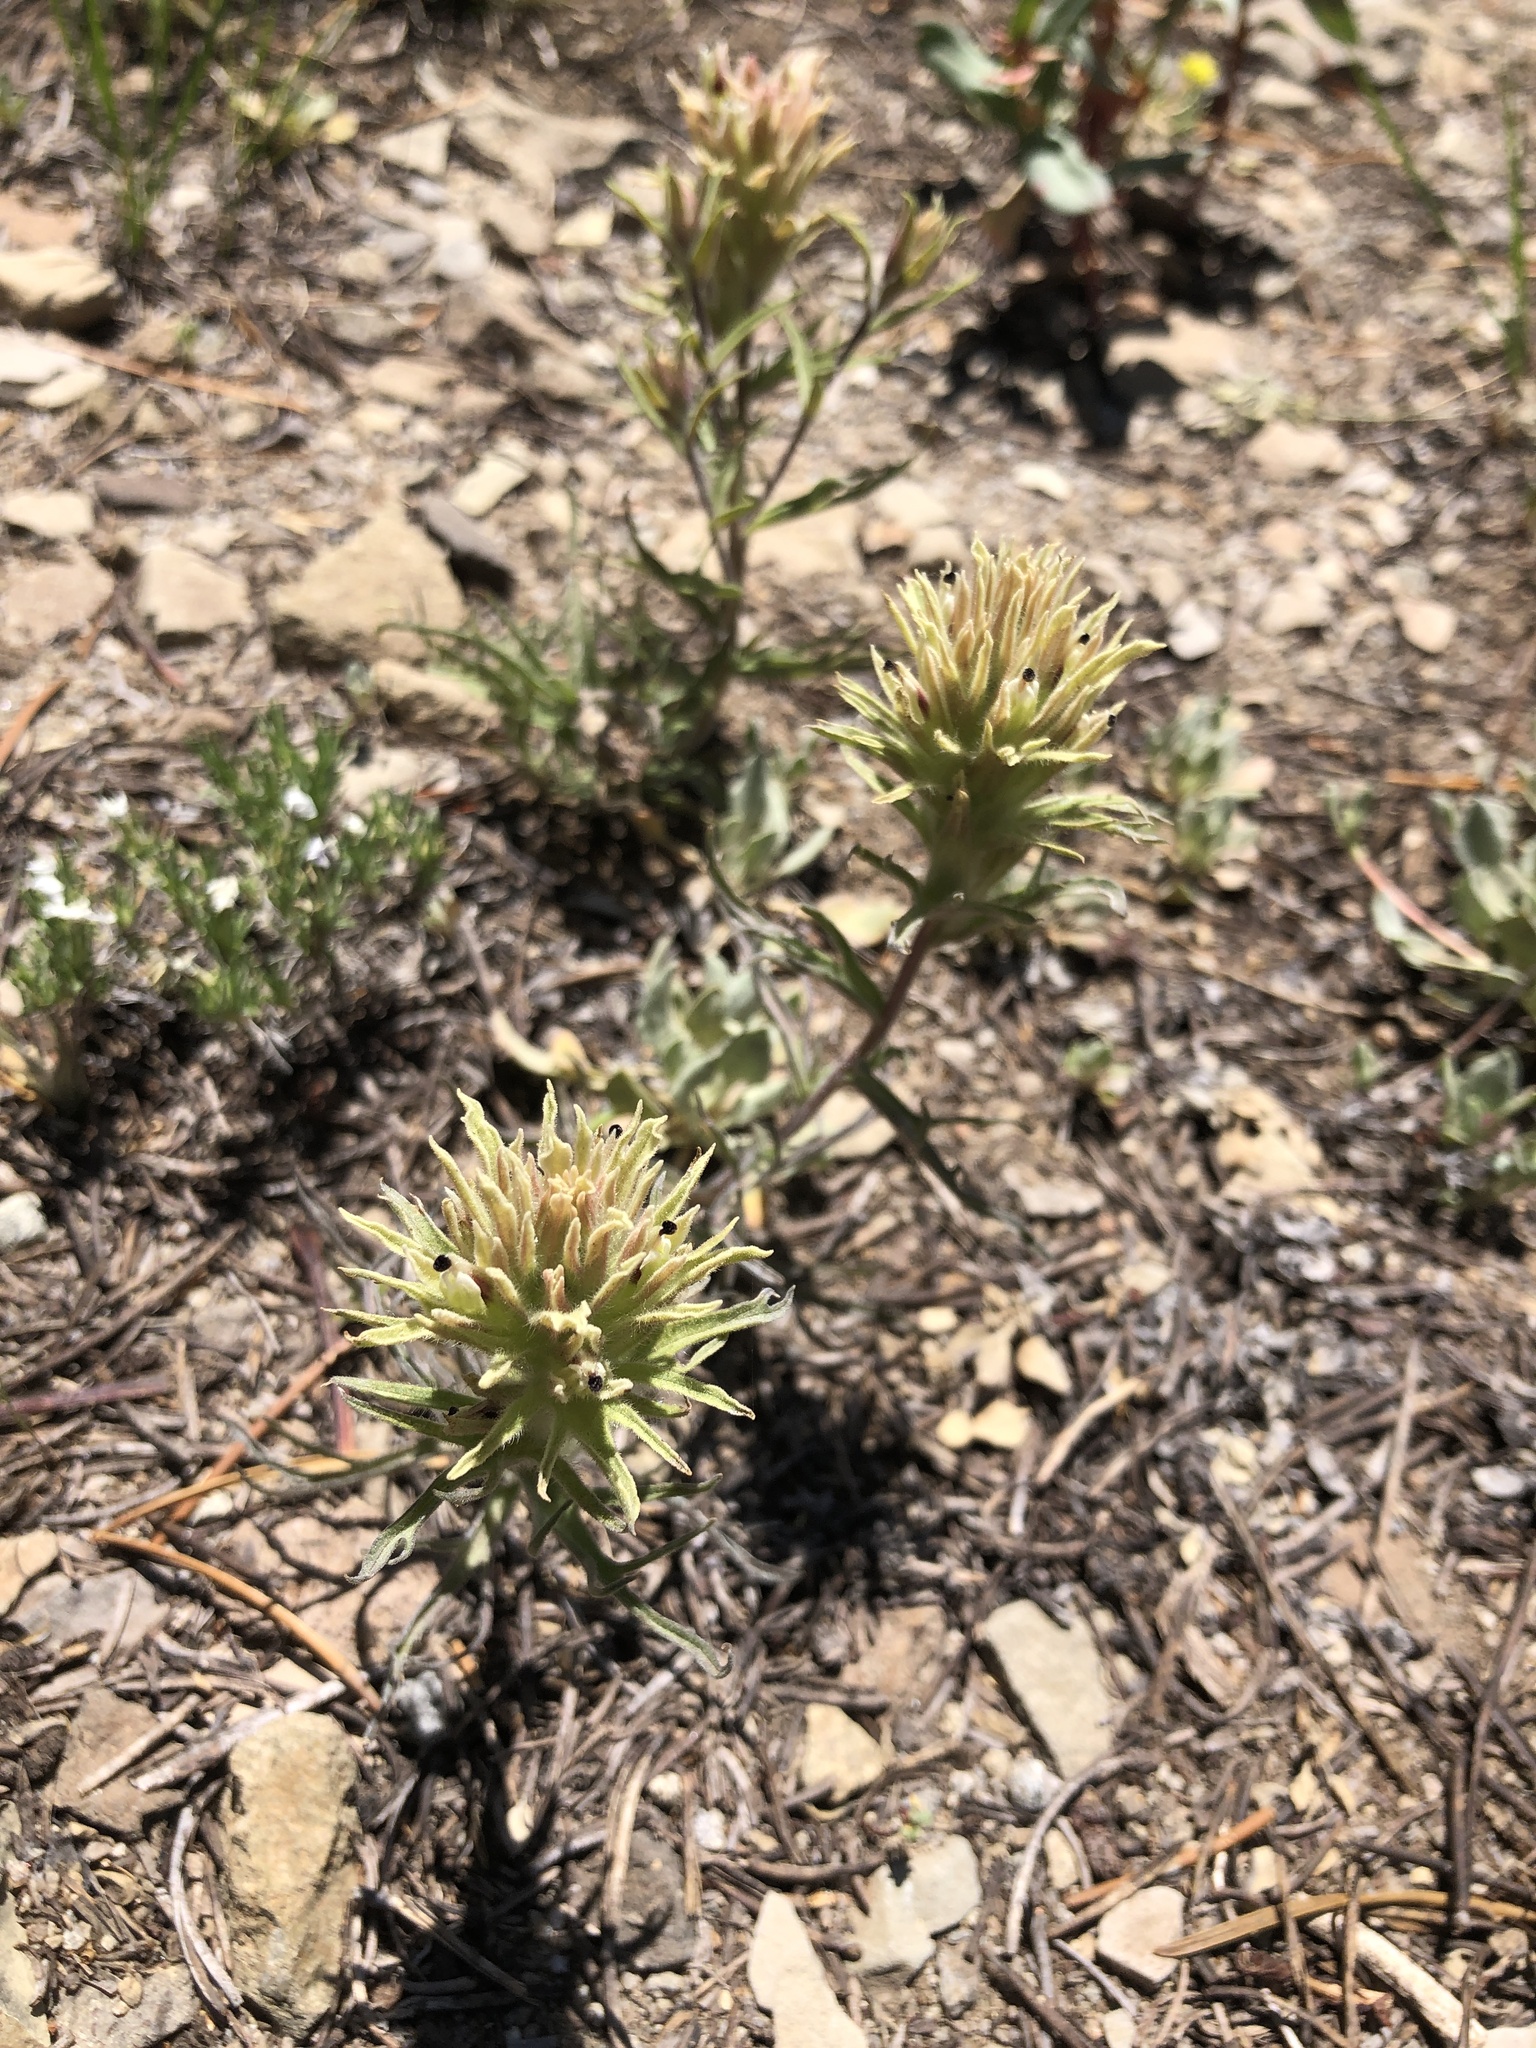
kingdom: Plantae
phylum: Tracheophyta
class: Magnoliopsida
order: Lamiales
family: Orobanchaceae
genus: Castilleja
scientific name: Castilleja nana
